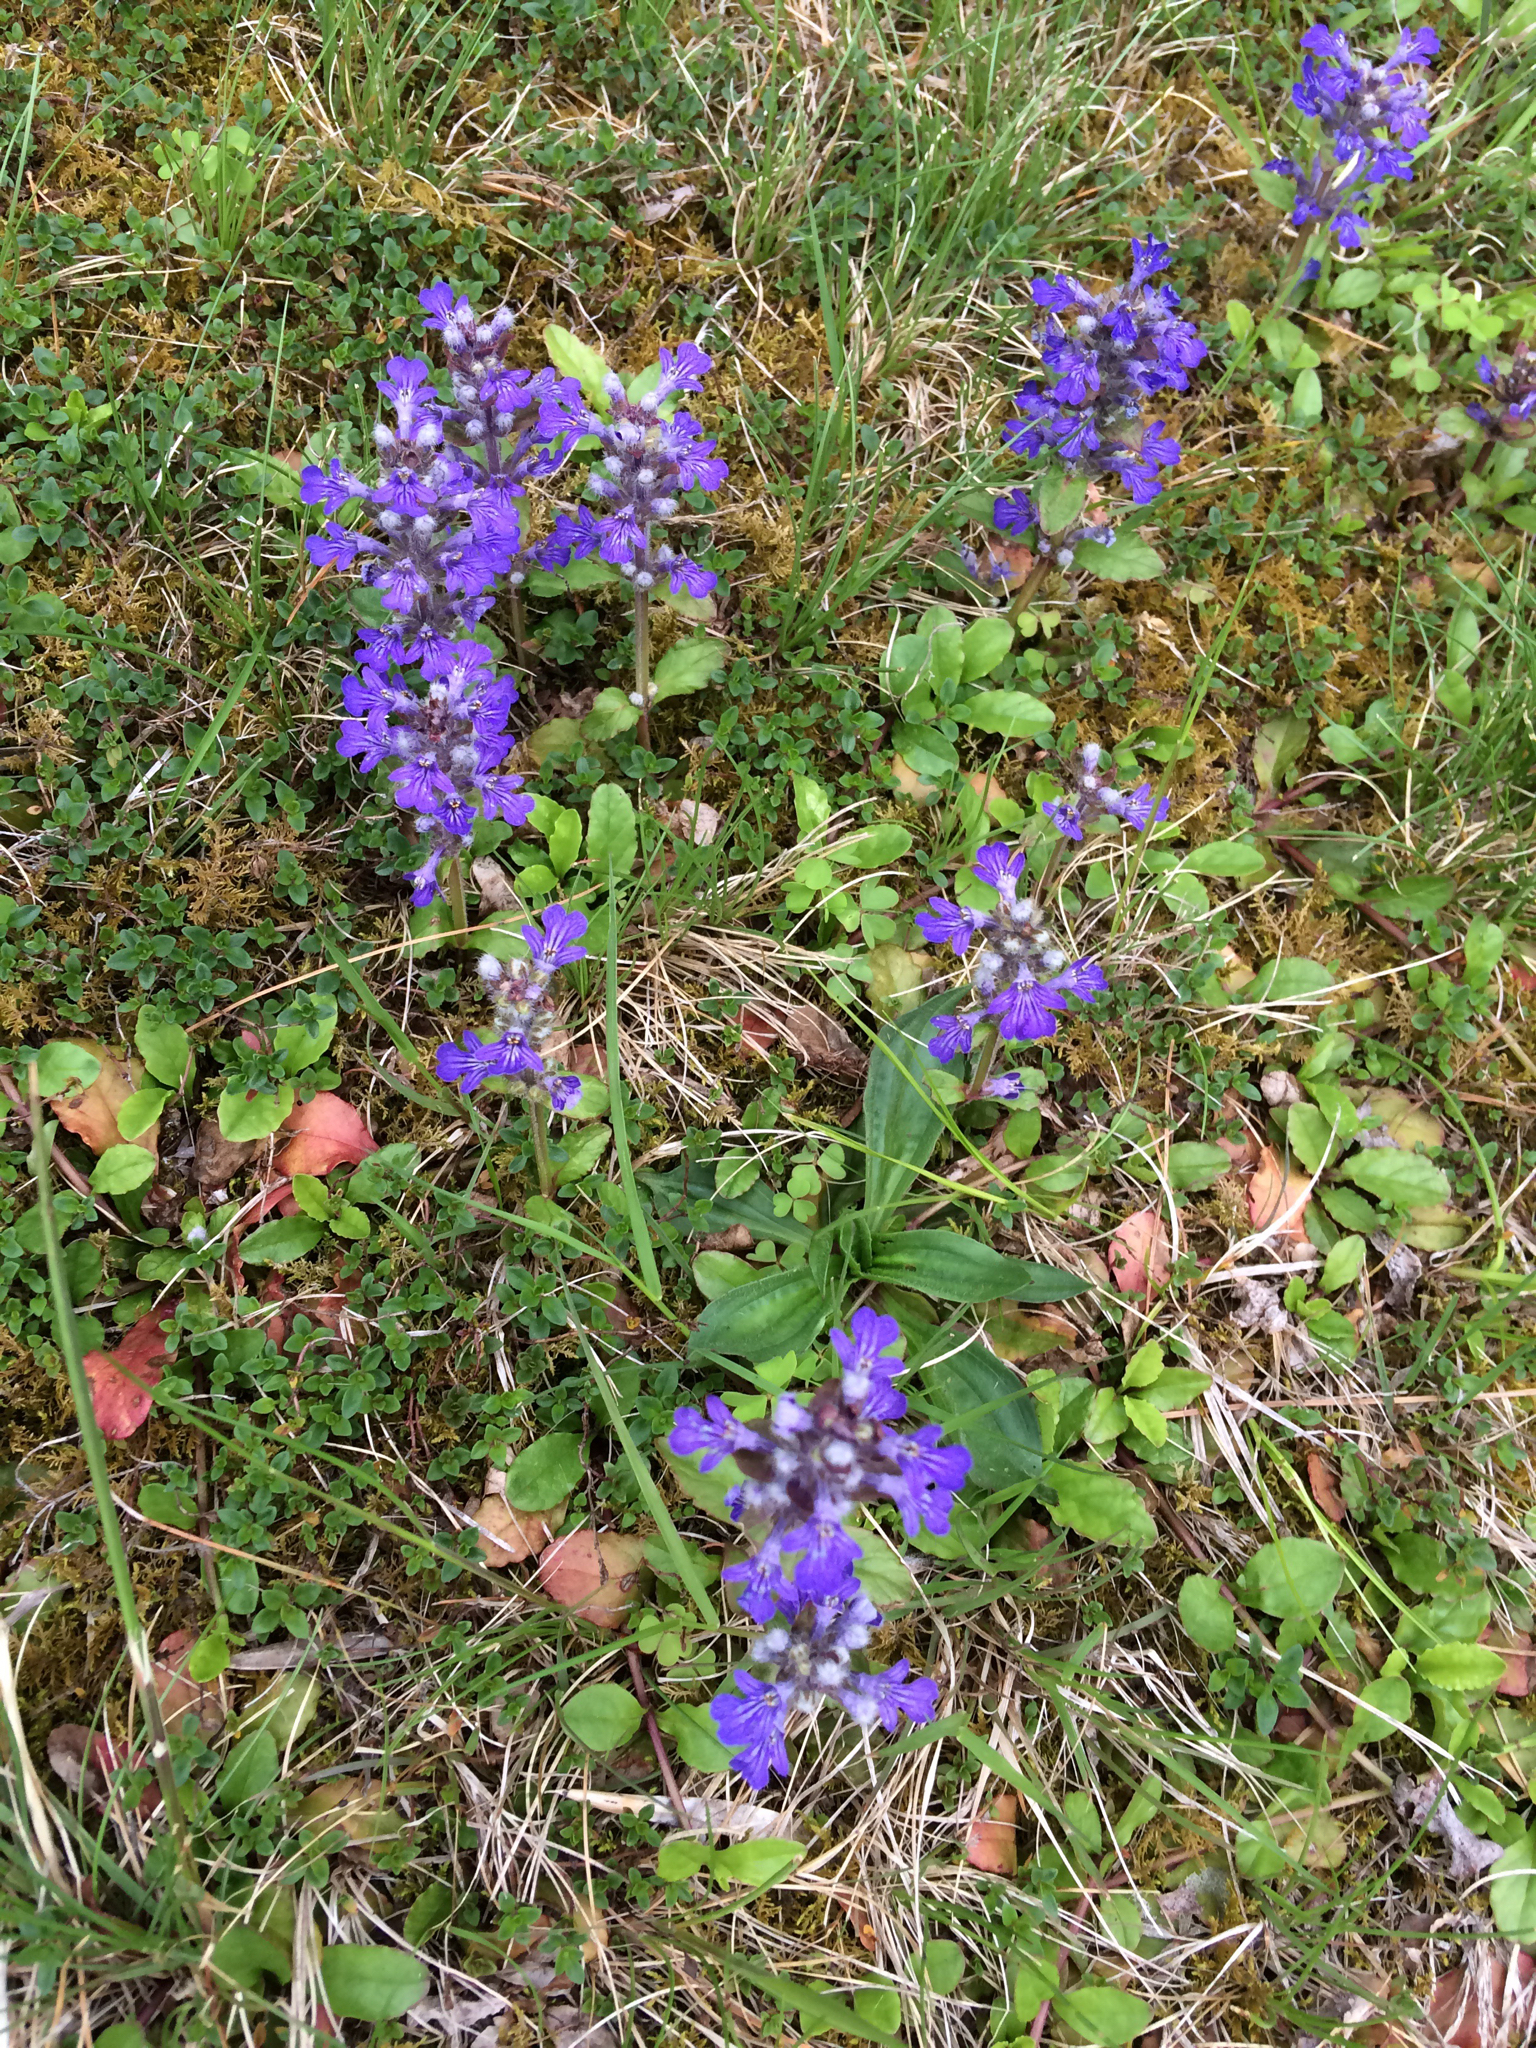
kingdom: Plantae
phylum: Tracheophyta
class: Magnoliopsida
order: Lamiales
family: Lamiaceae
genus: Ajuga
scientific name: Ajuga reptans
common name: Bugle
